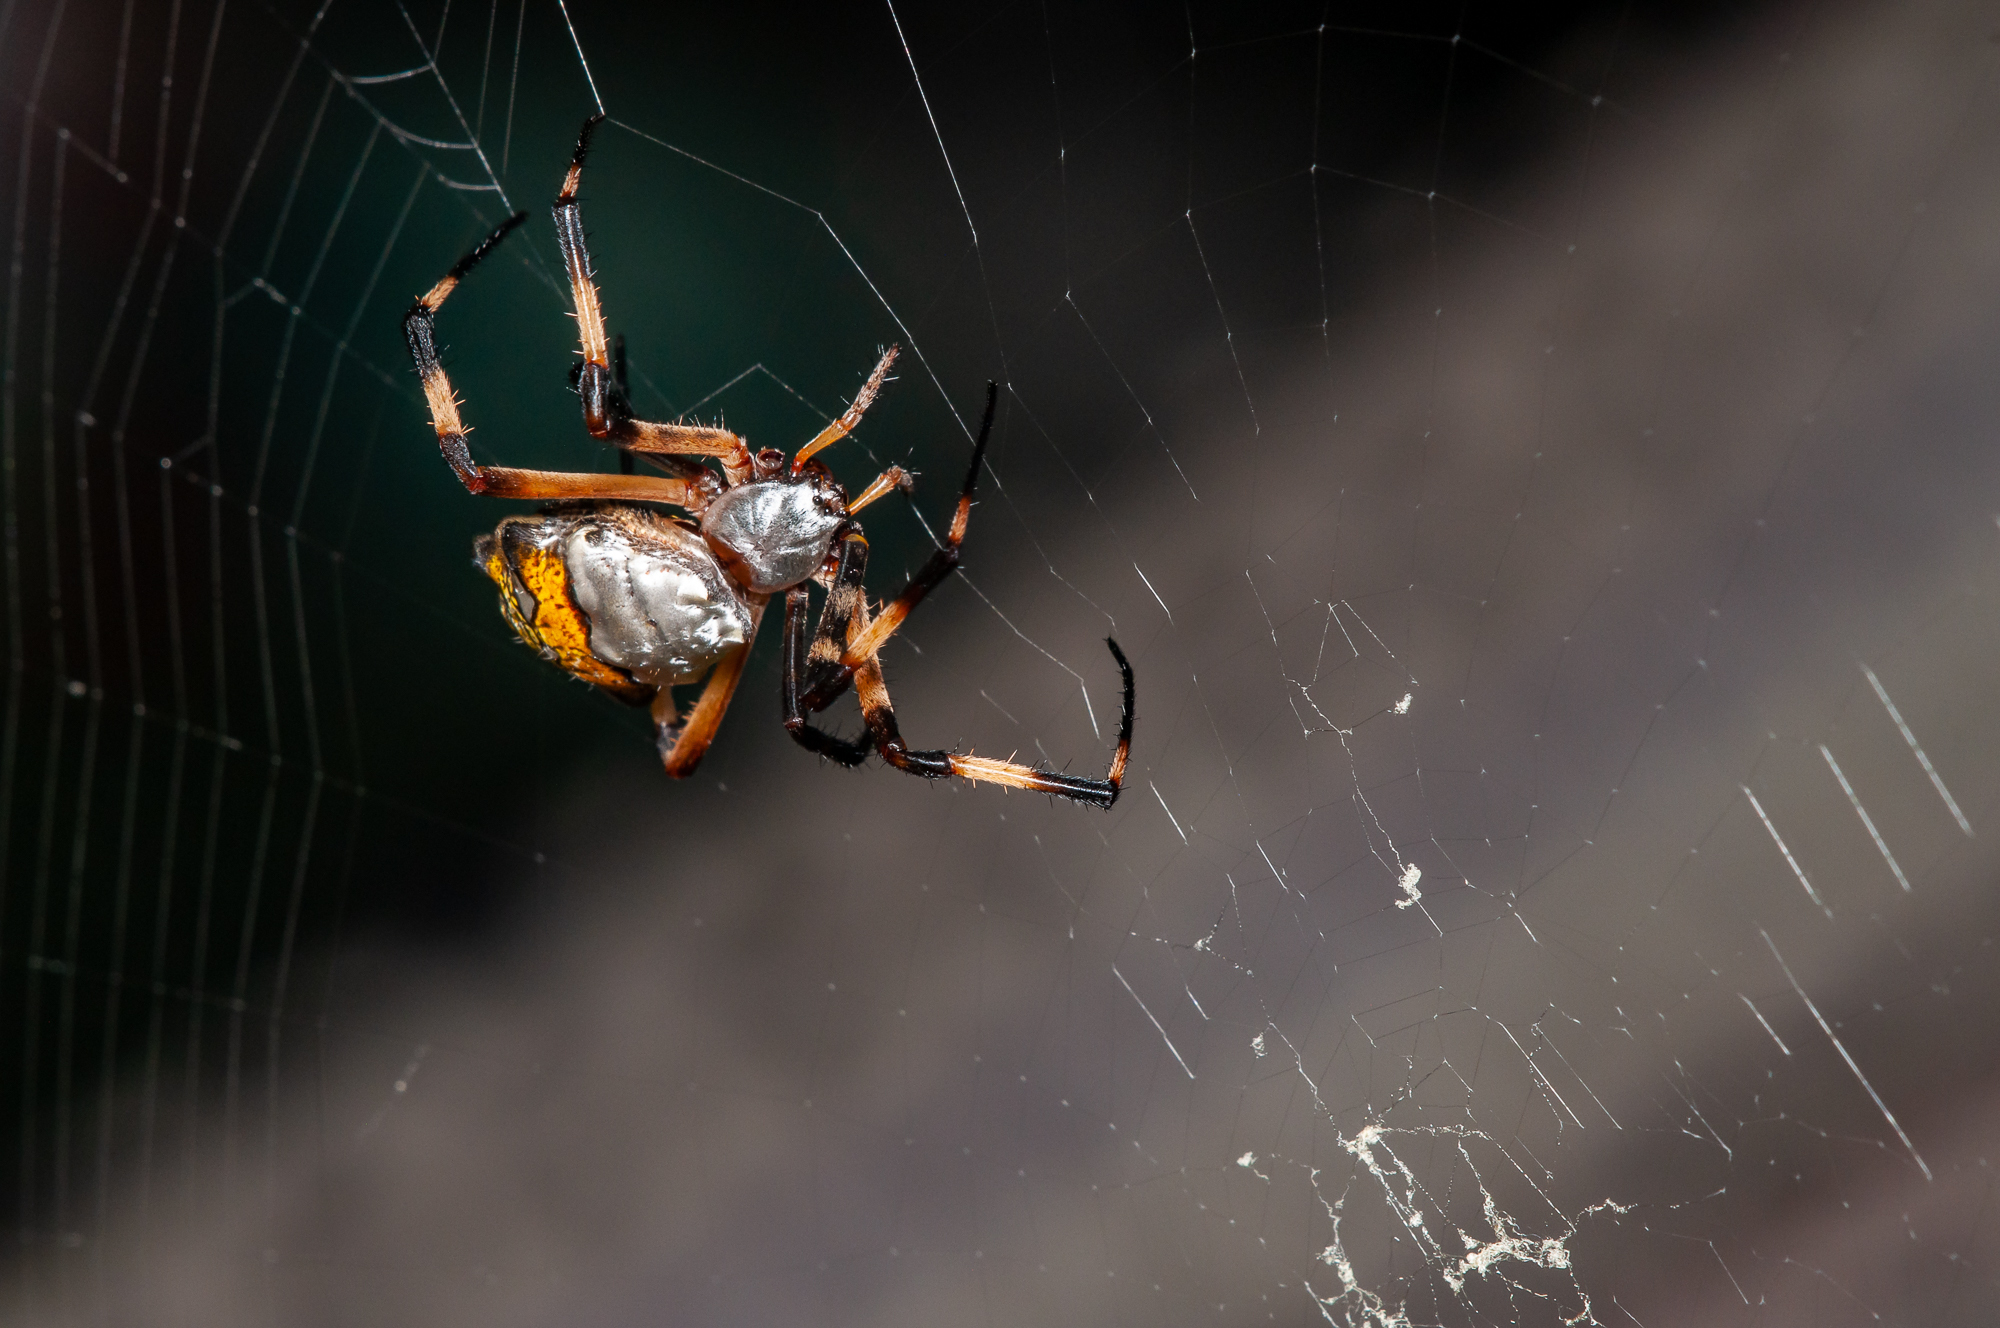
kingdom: Animalia
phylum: Arthropoda
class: Arachnida
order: Araneae
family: Araneidae
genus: Argiope
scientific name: Argiope argentata
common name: Orb weavers
